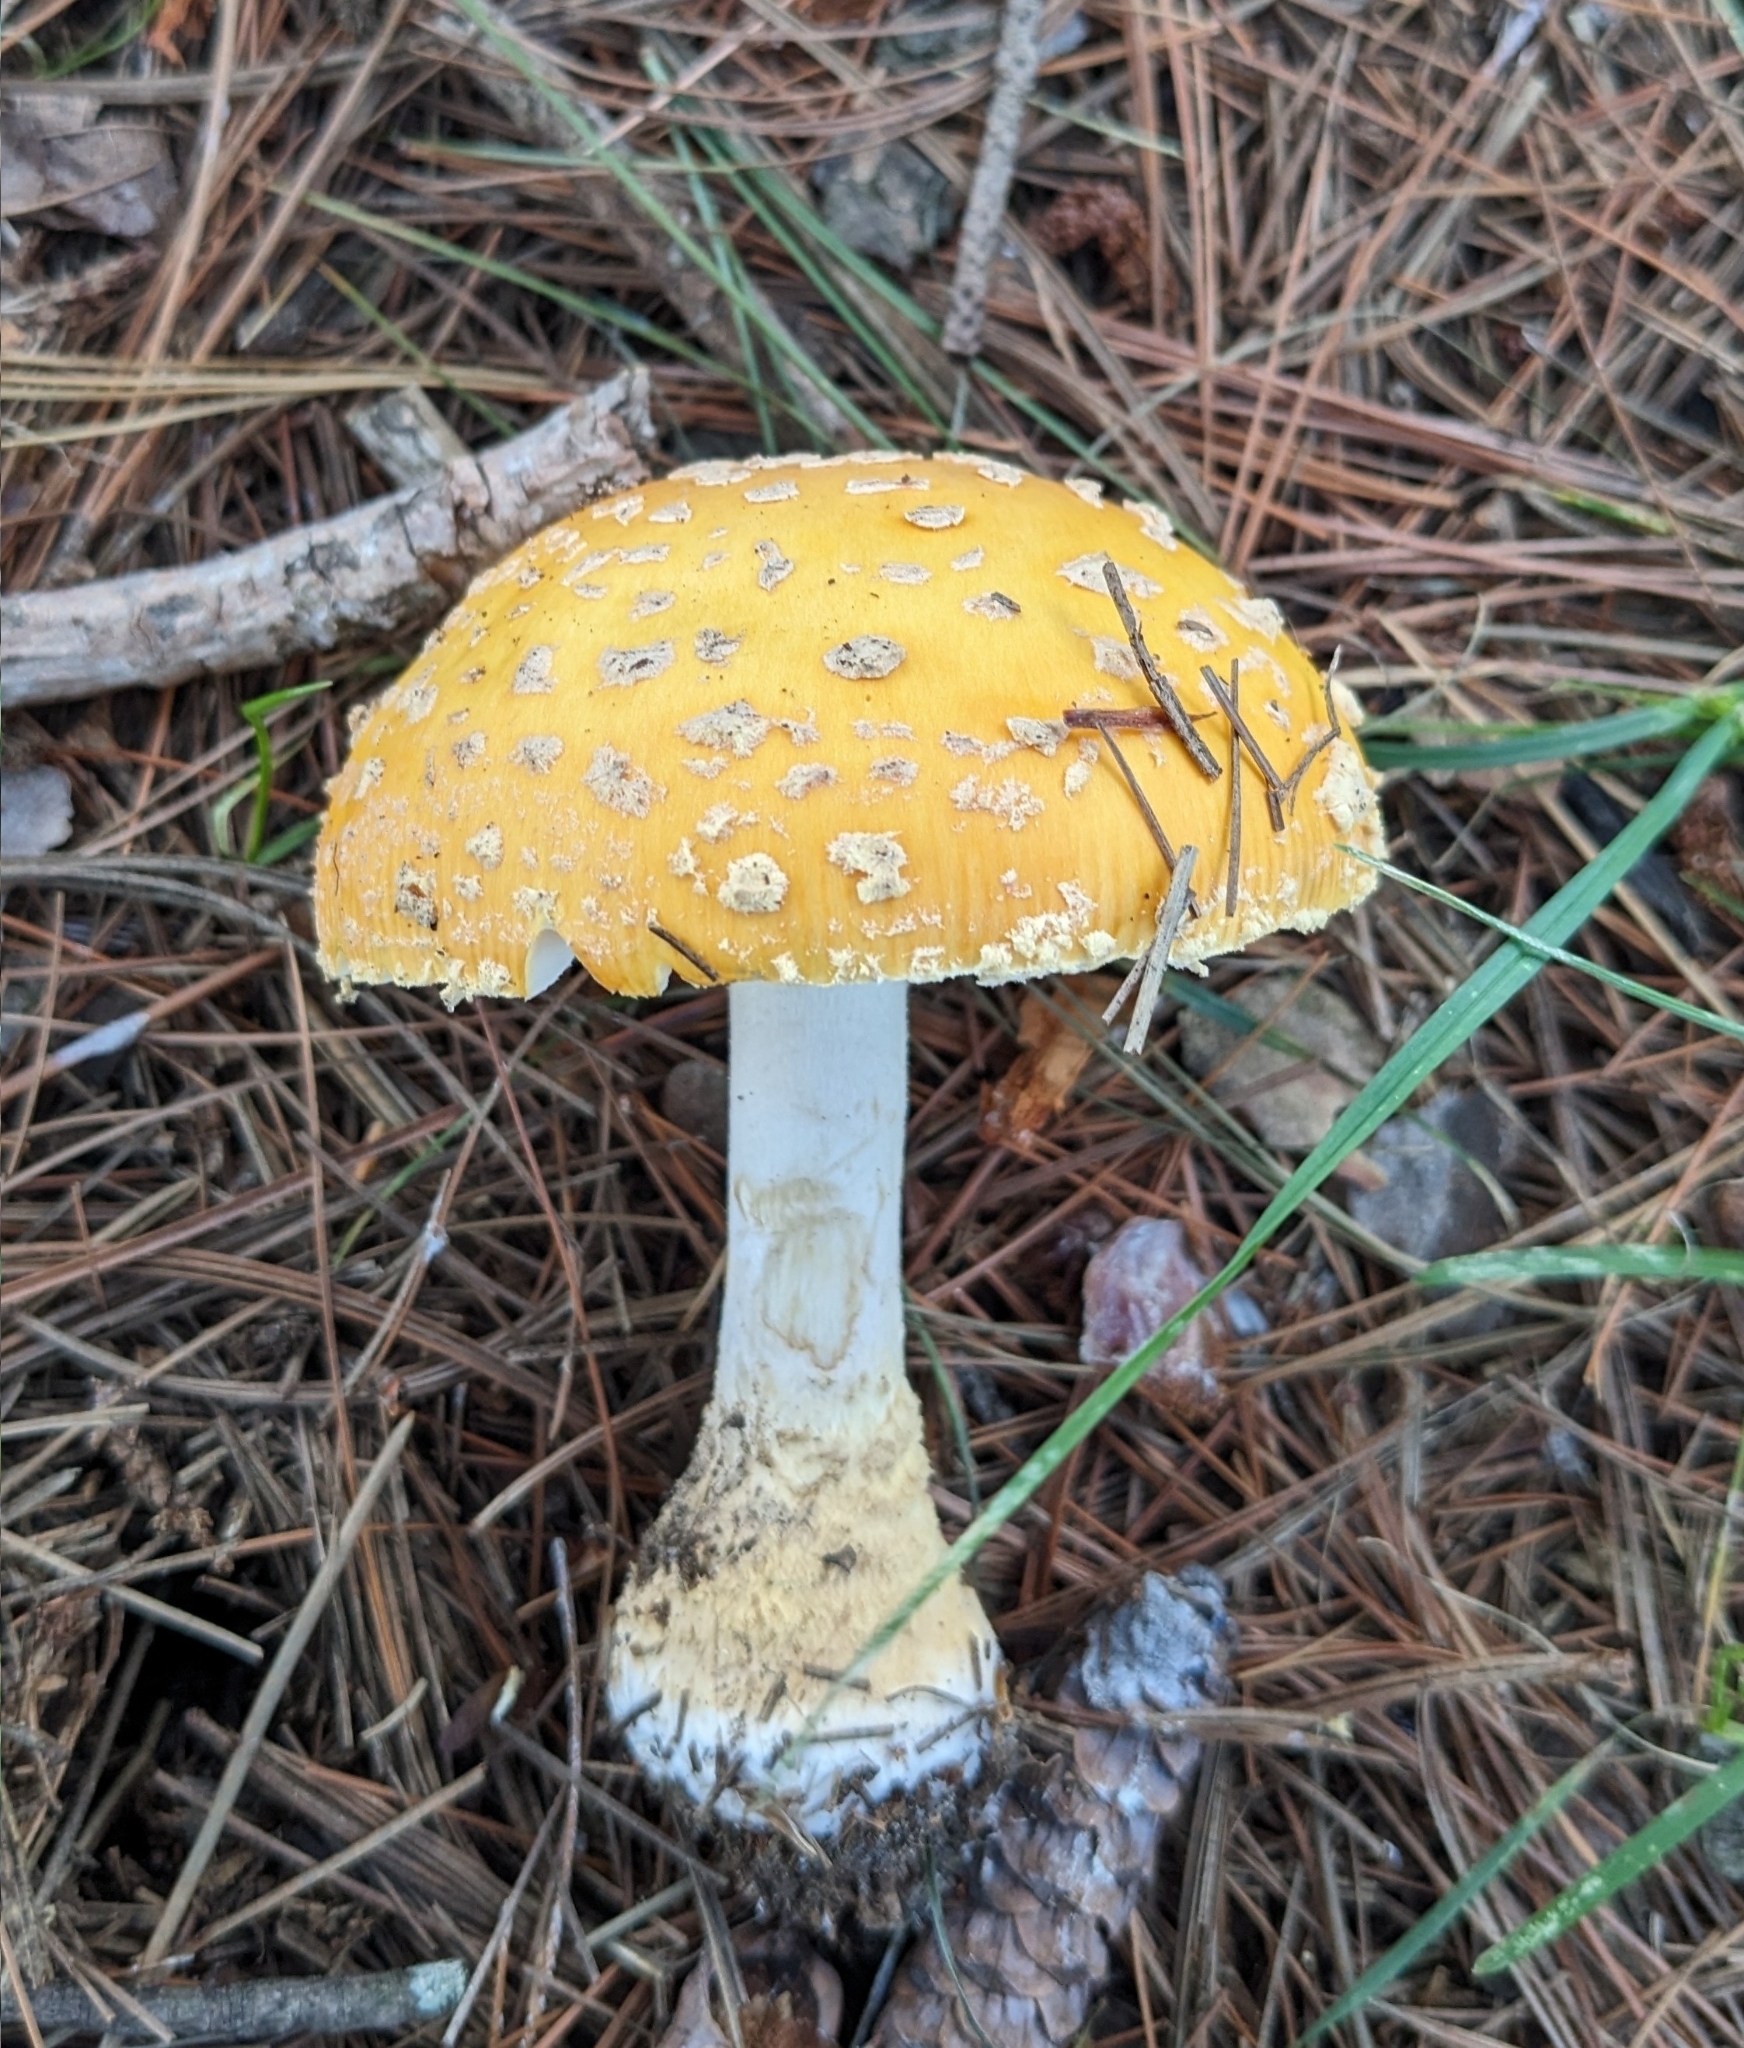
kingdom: Fungi
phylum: Basidiomycota
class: Agaricomycetes
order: Agaricales
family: Amanitaceae
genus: Amanita
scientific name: Amanita muscaria
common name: Fly agaric
